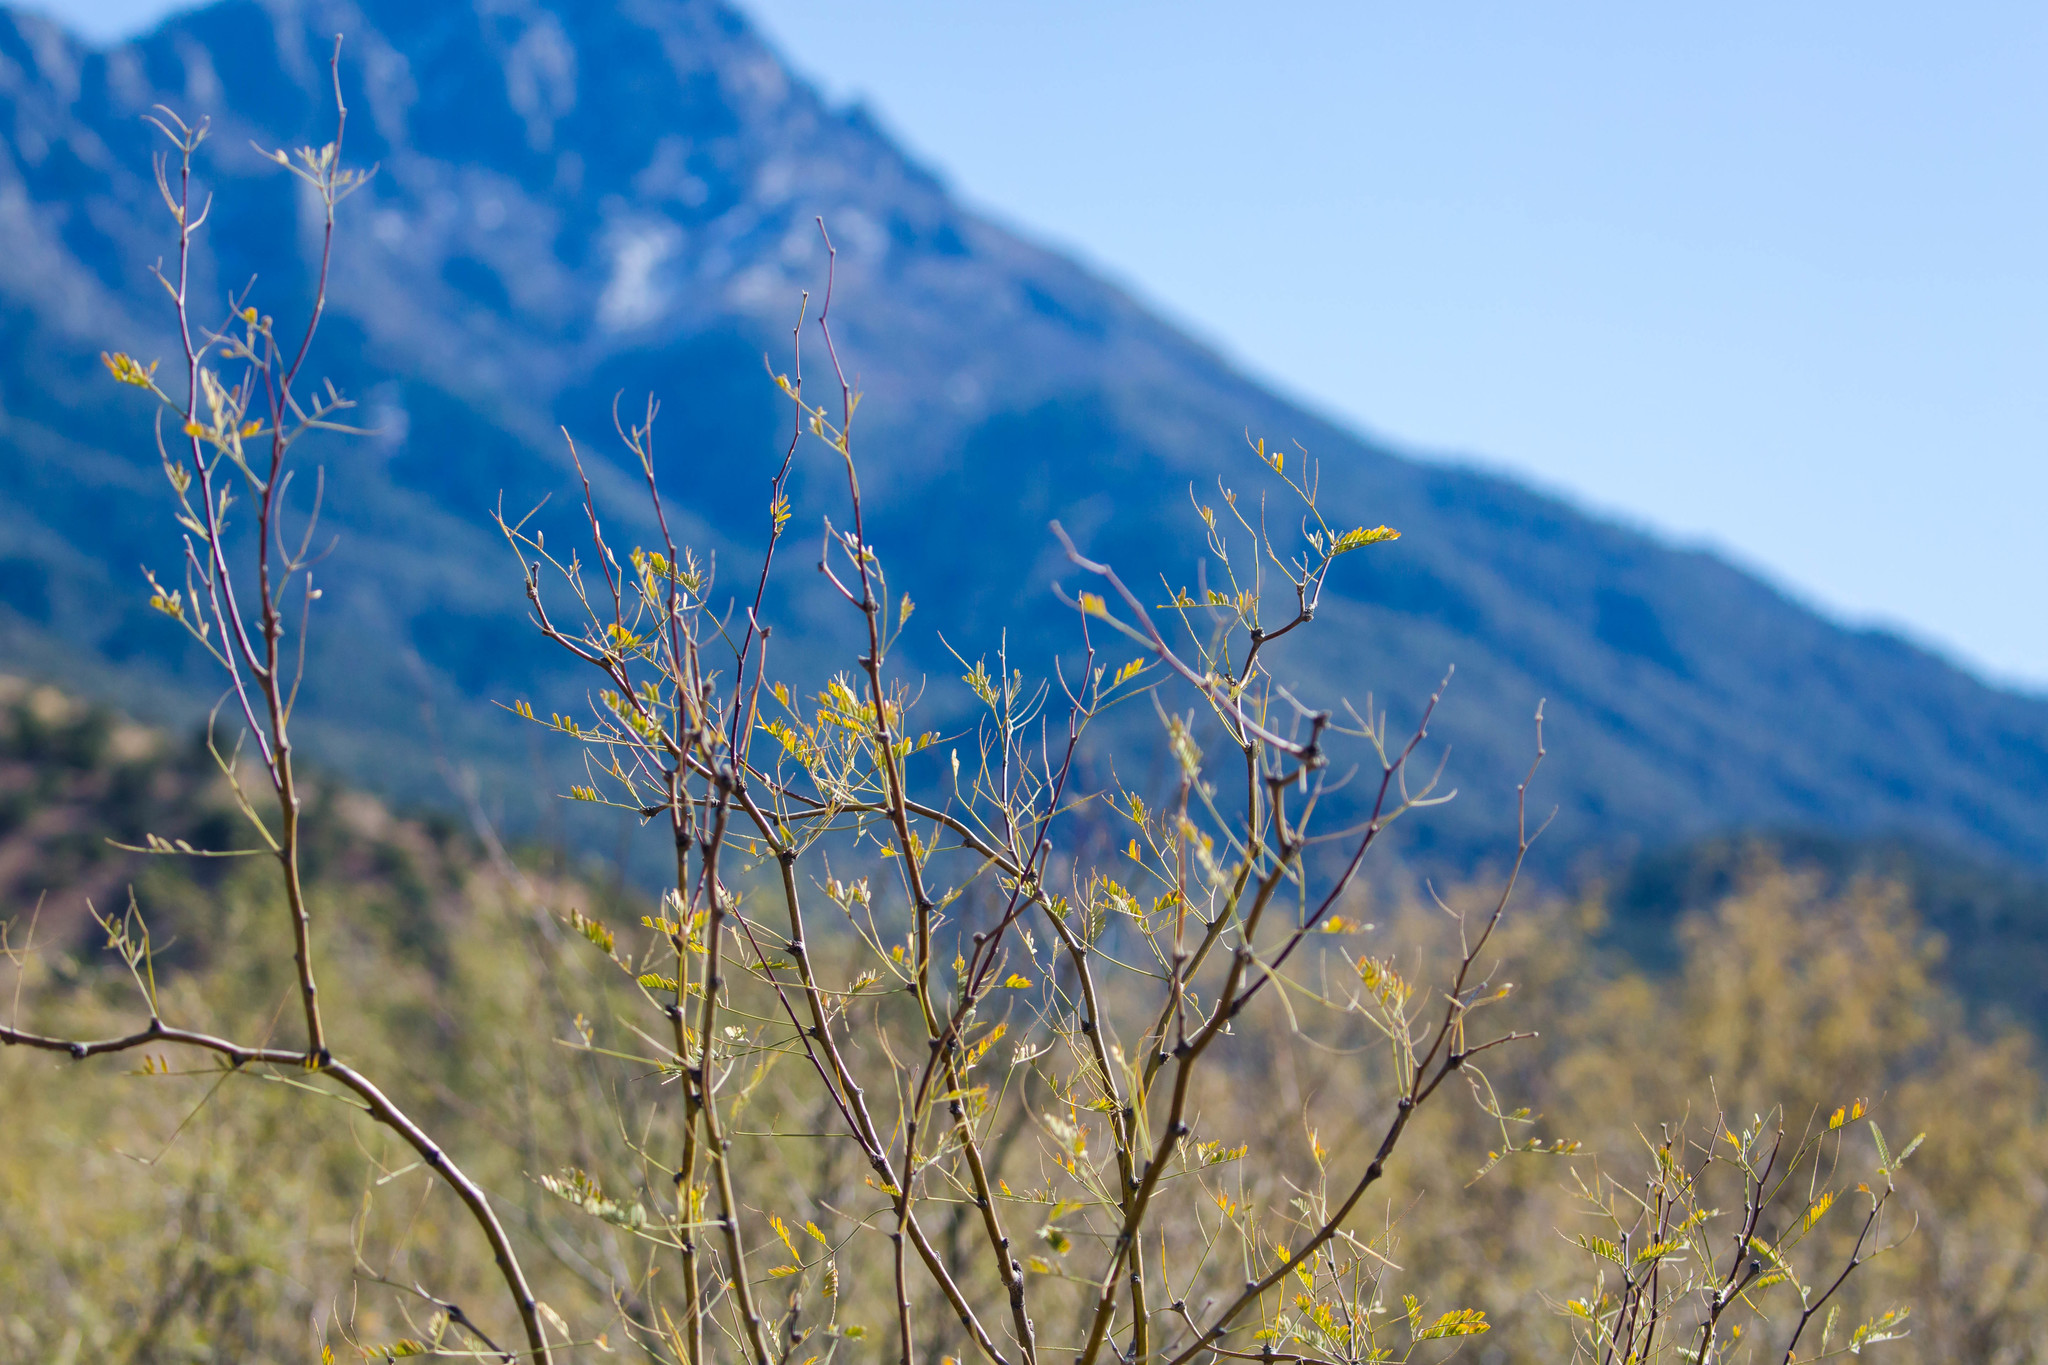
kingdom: Plantae
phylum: Tracheophyta
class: Magnoliopsida
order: Fabales
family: Fabaceae
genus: Prosopis
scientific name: Prosopis velutina
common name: Velvet mesquite
